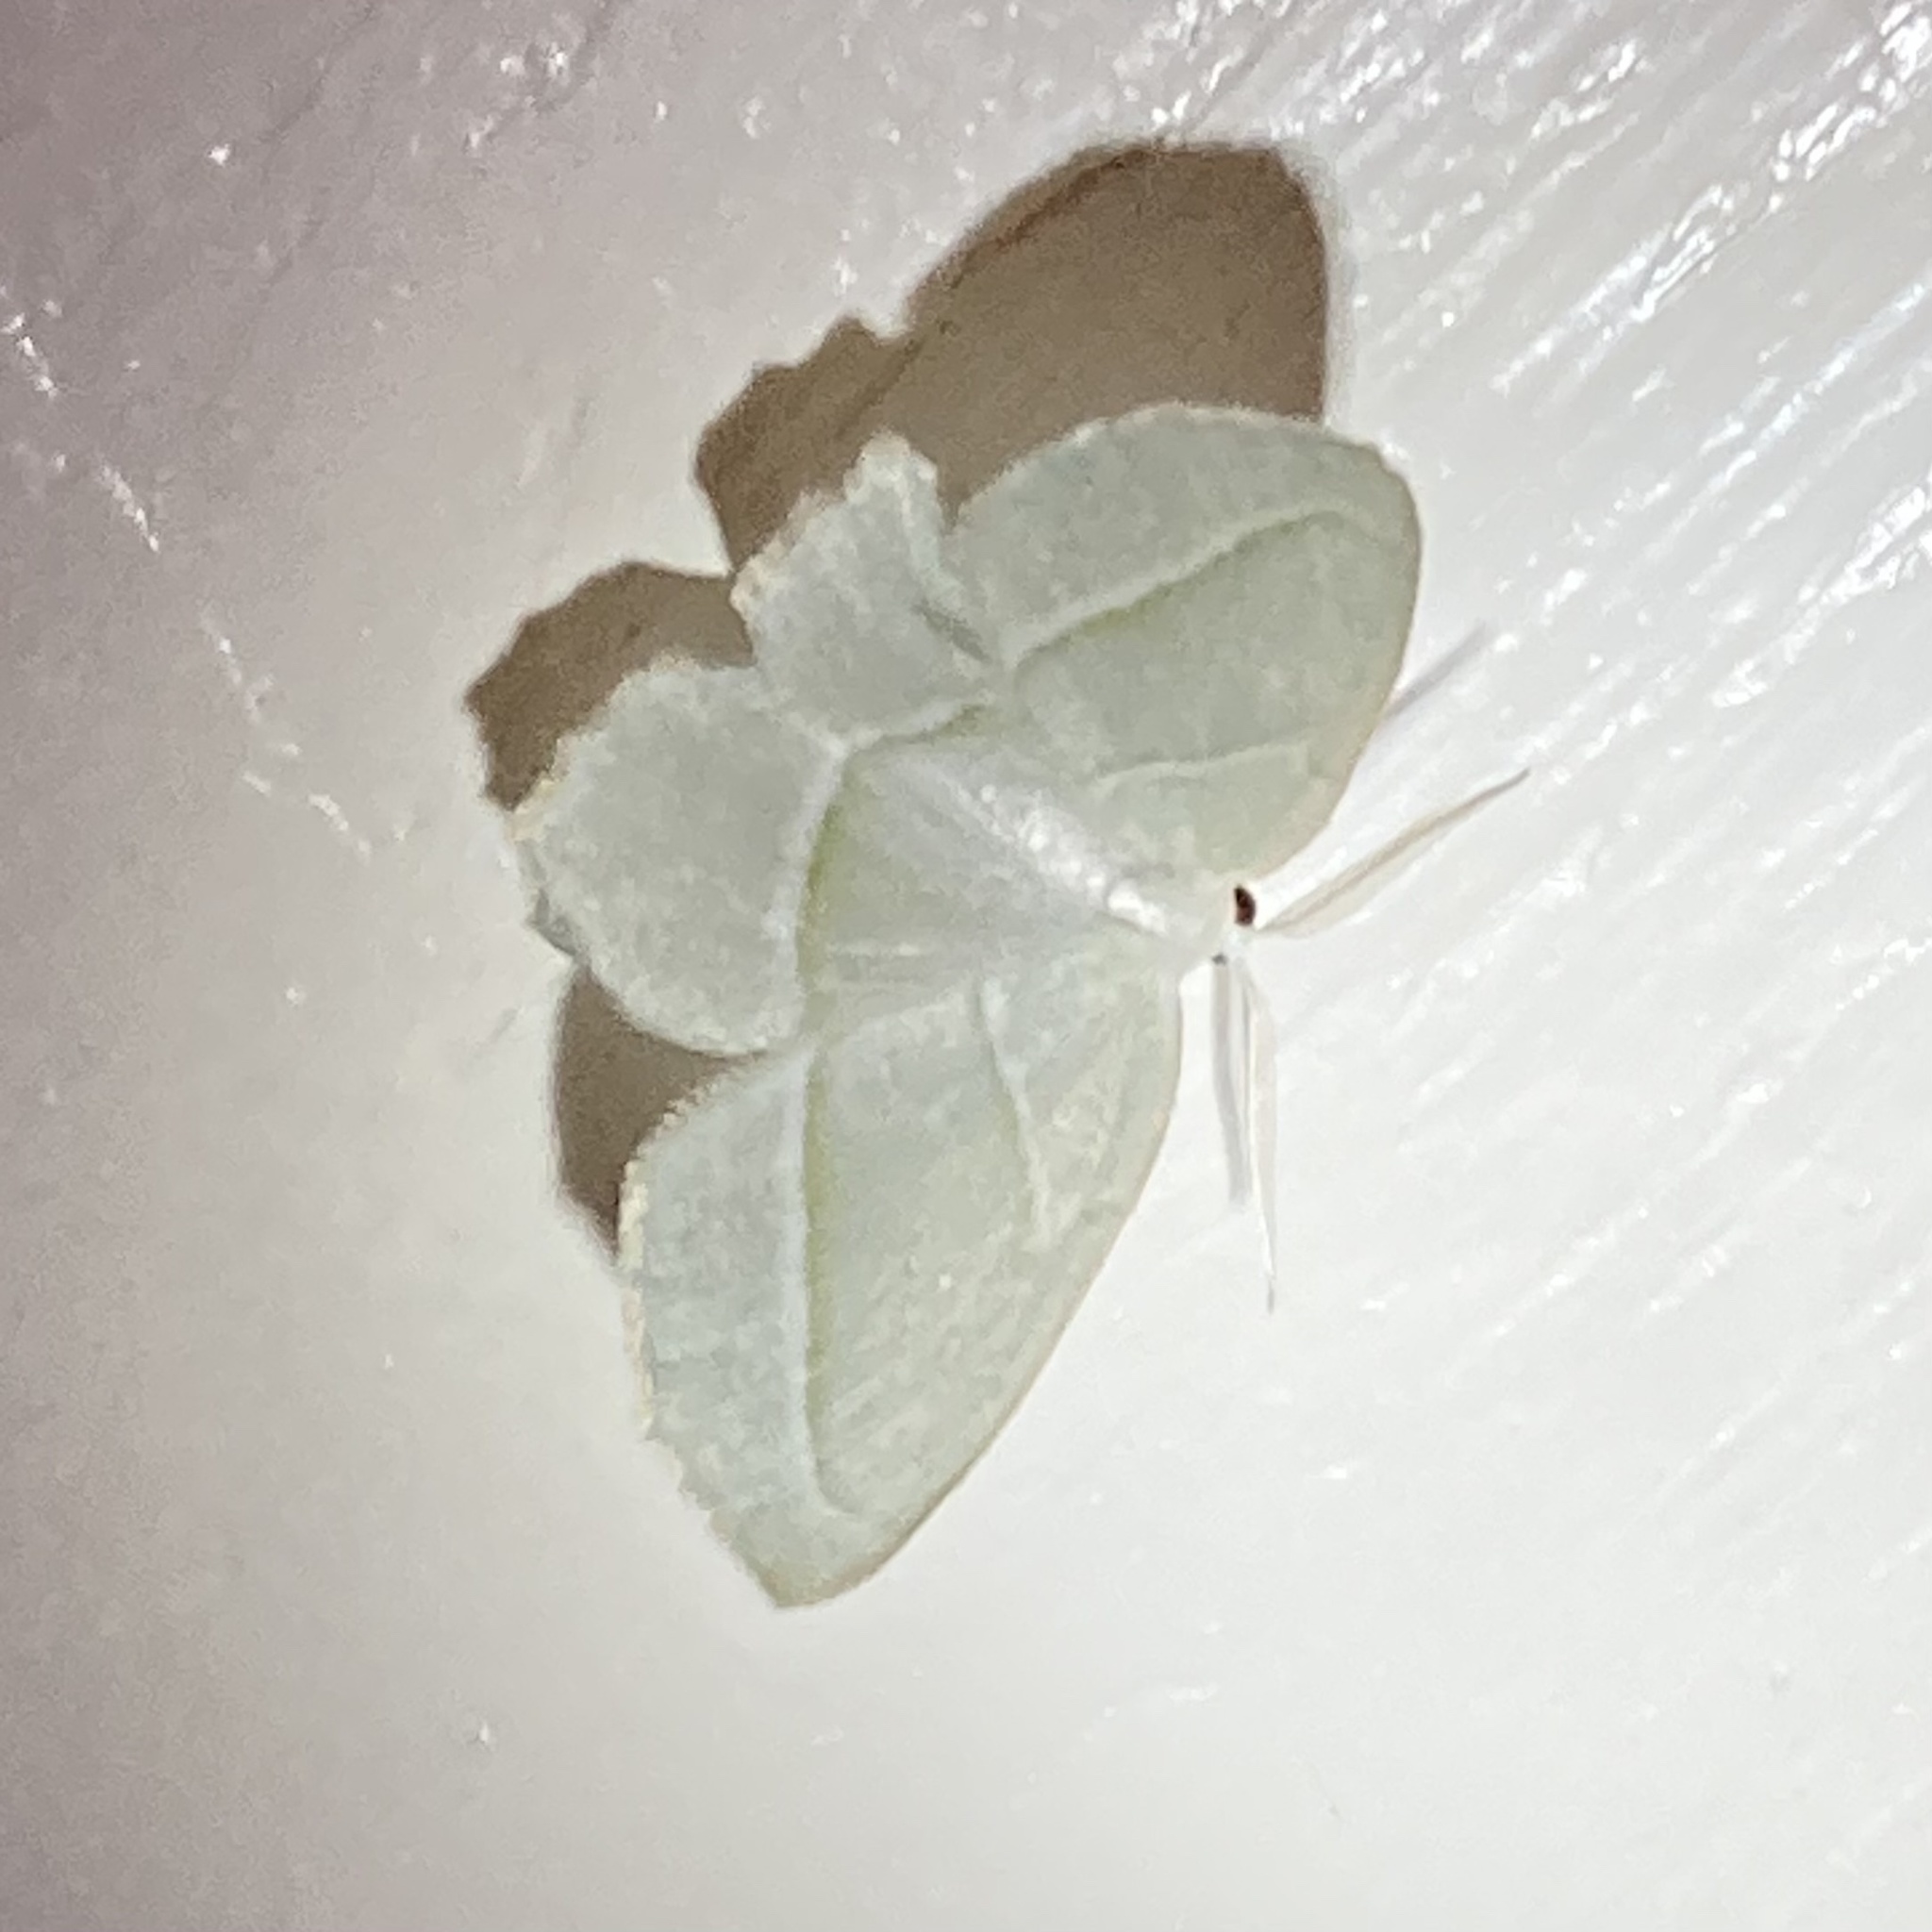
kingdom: Animalia
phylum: Arthropoda
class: Insecta
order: Lepidoptera
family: Geometridae
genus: Campaea
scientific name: Campaea perlata
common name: Fringed looper
